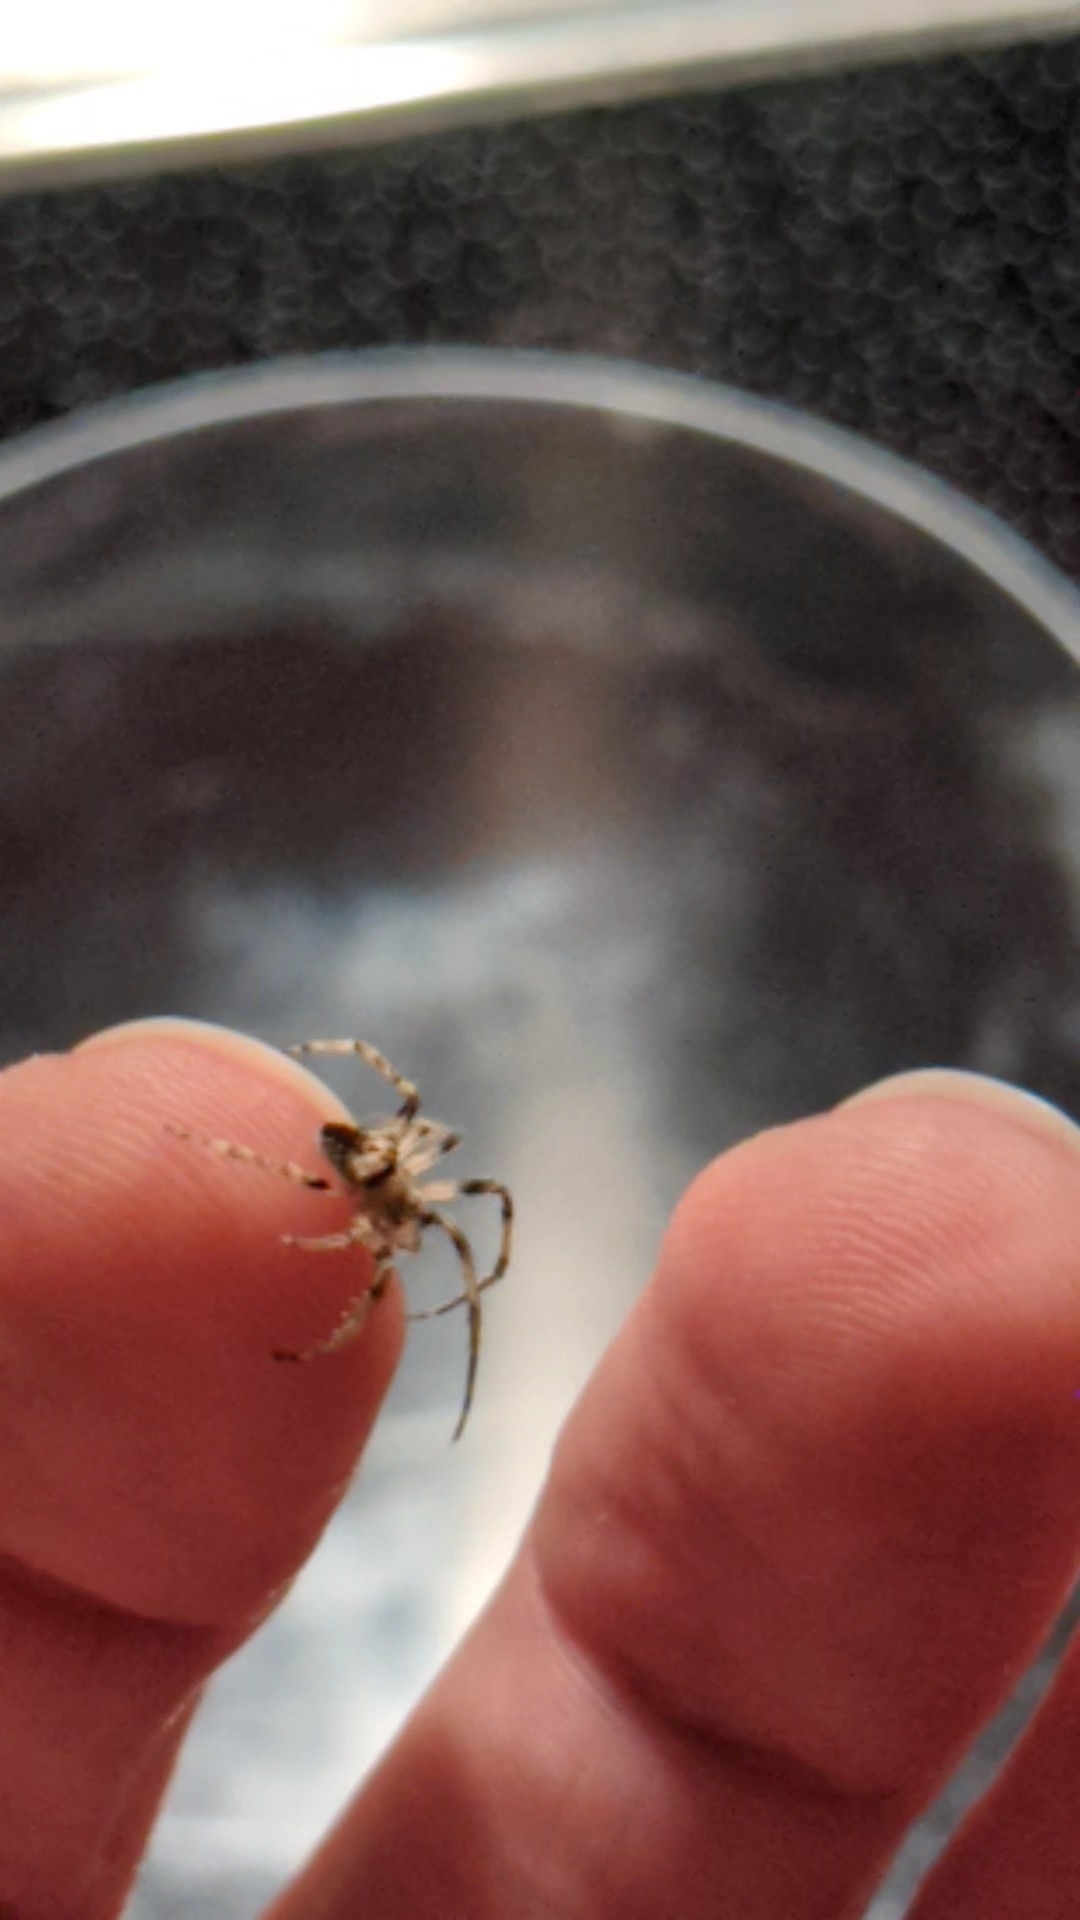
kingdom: Animalia
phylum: Arthropoda
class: Arachnida
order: Araneae
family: Araneidae
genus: Eriophora
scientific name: Eriophora pustulosa
